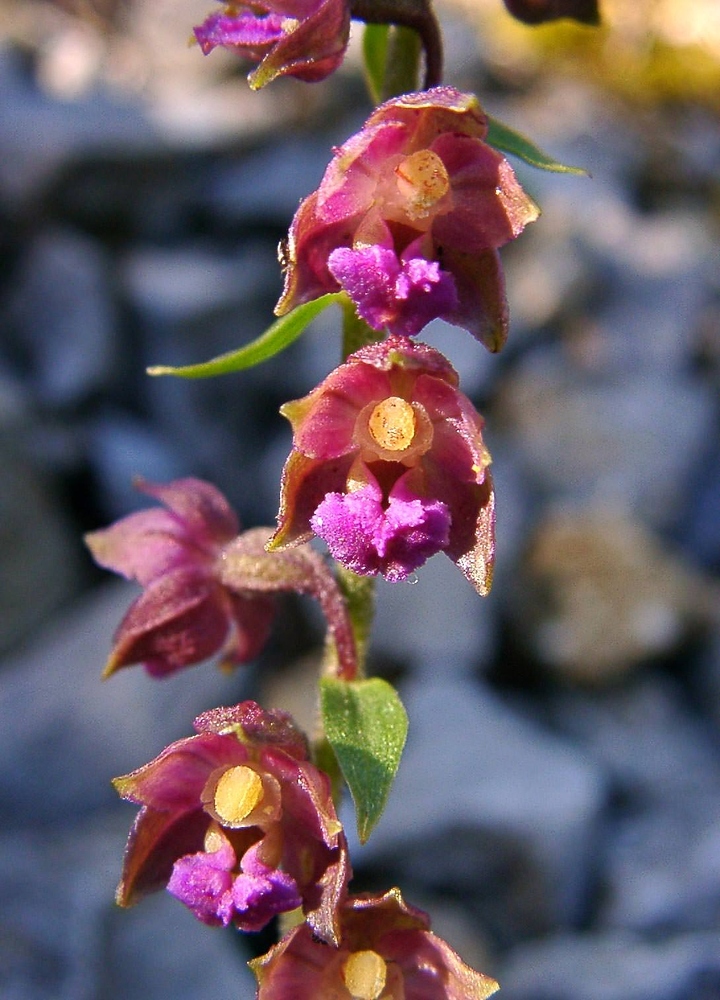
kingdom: Plantae
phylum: Tracheophyta
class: Liliopsida
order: Asparagales
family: Orchidaceae
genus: Epipactis
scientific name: Epipactis atrorubens
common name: Dark-red helleborine
